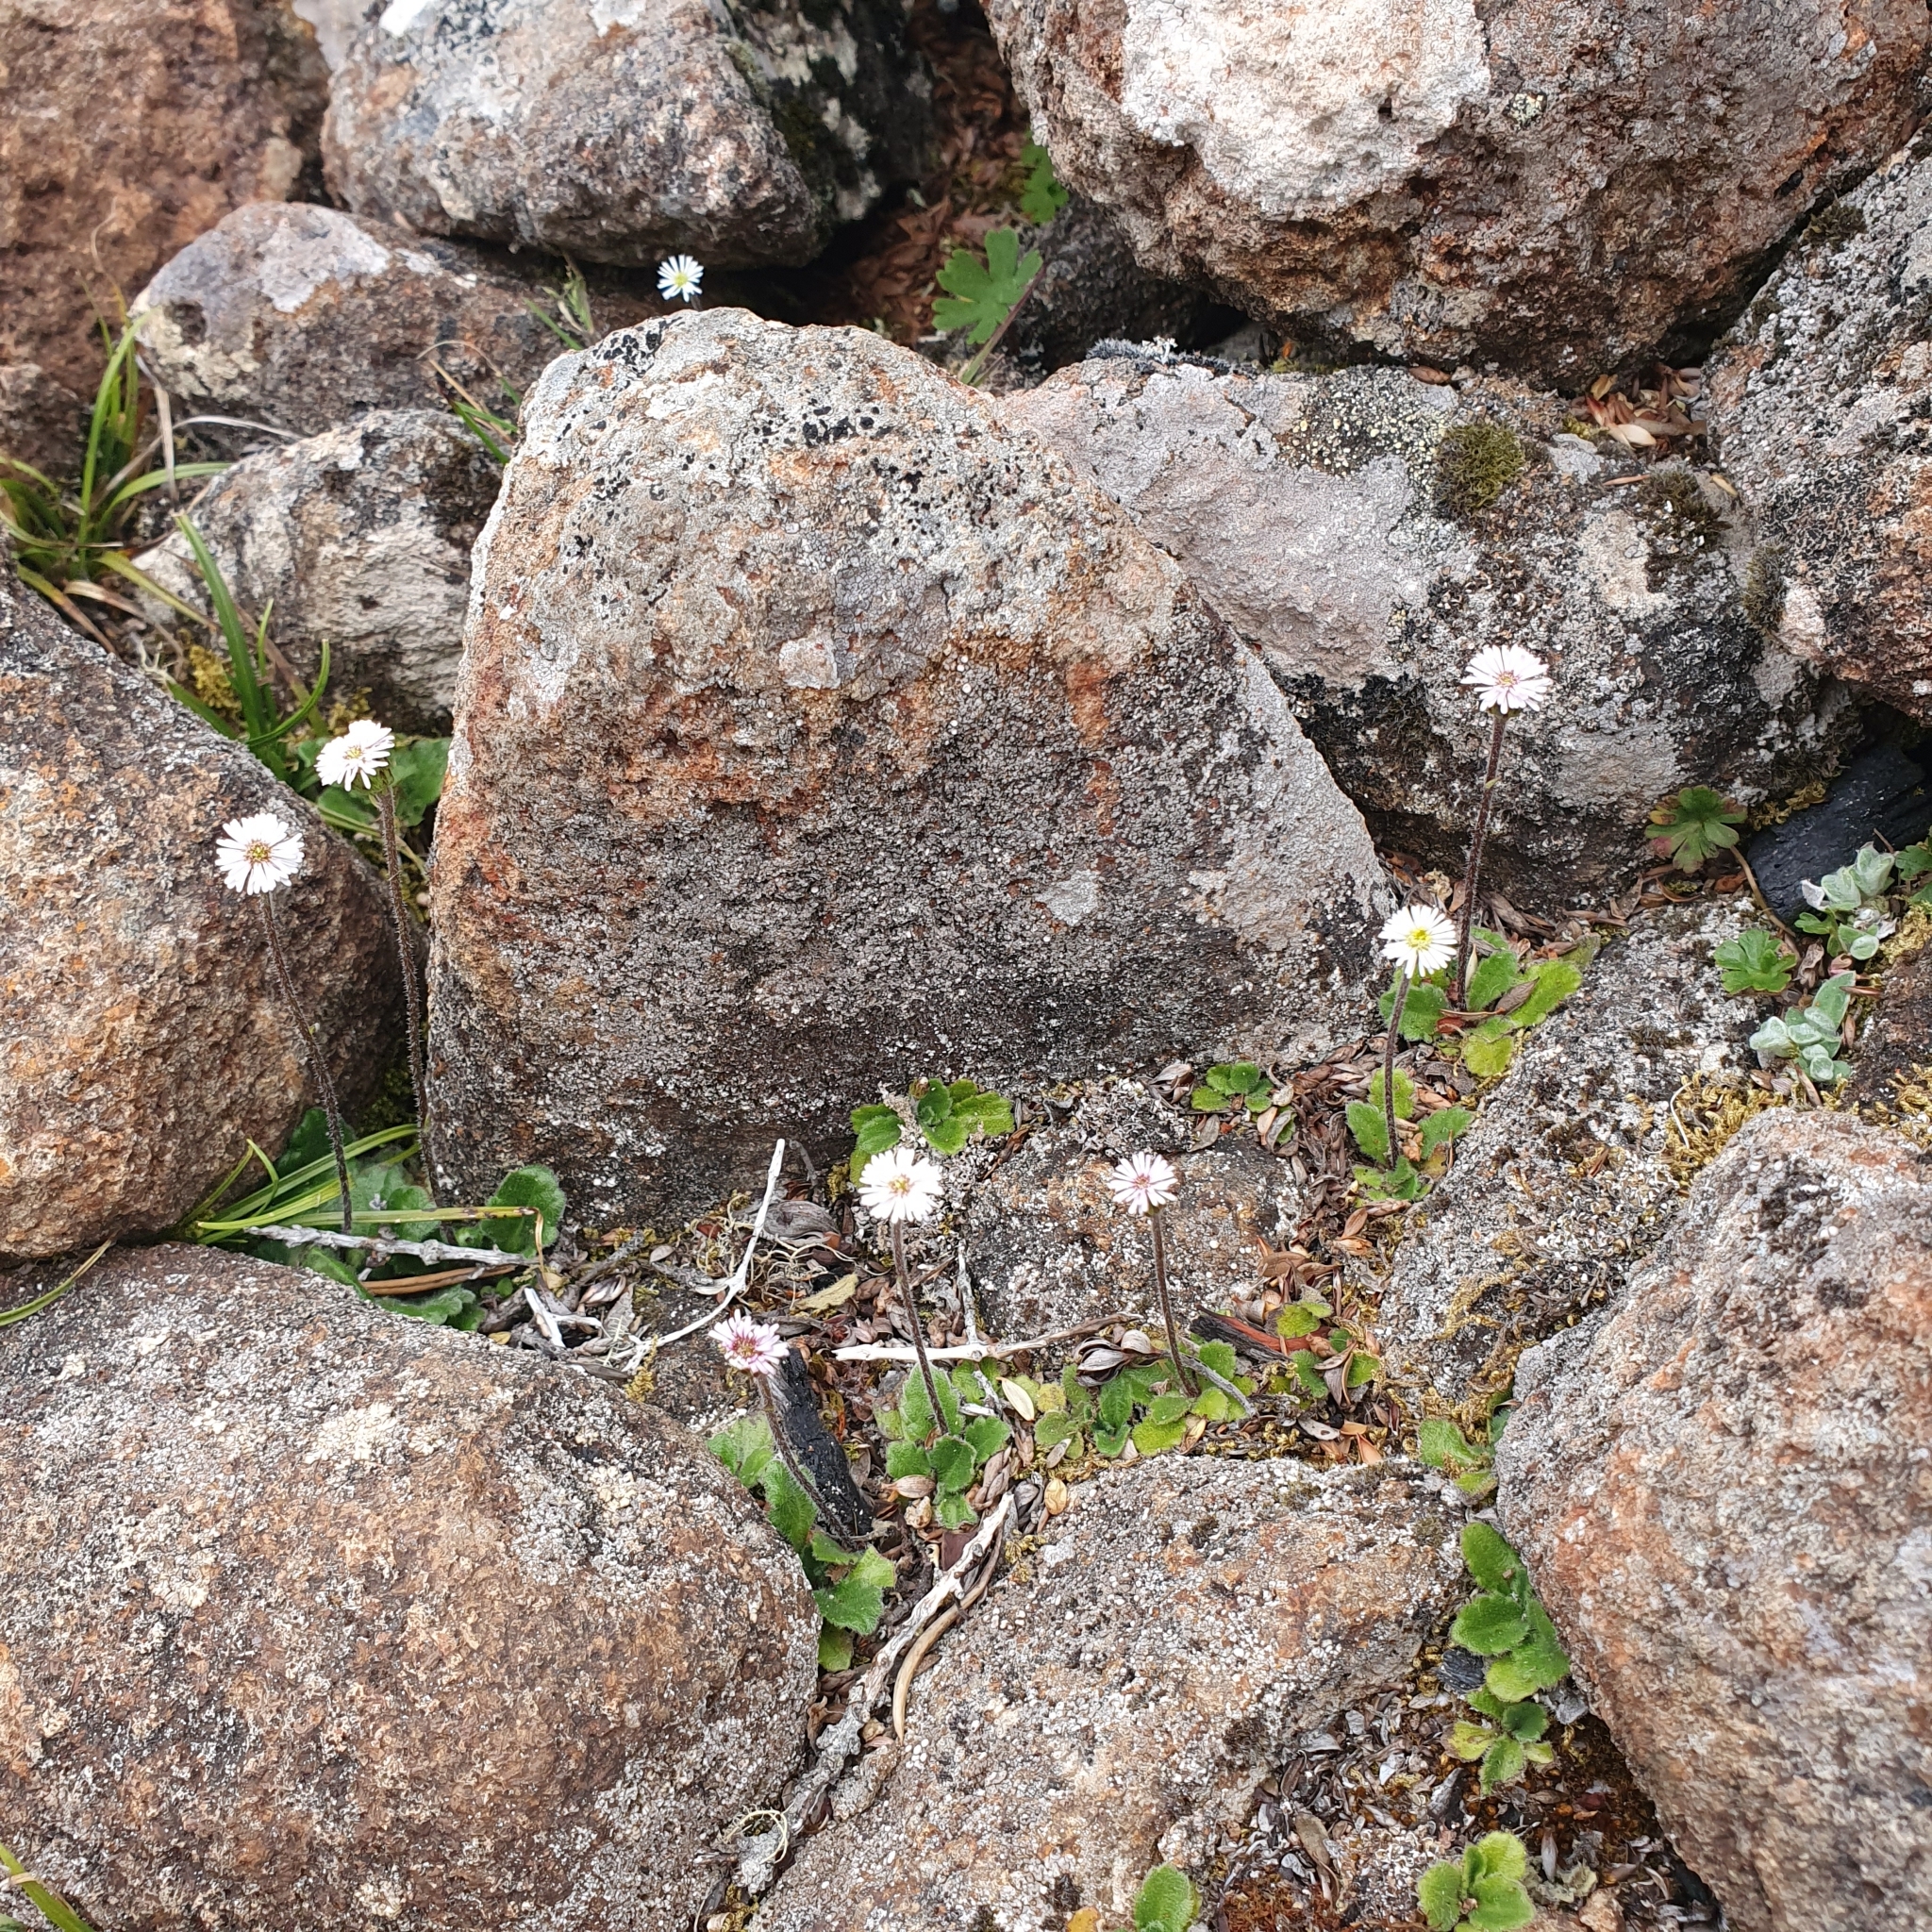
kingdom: Plantae
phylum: Tracheophyta
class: Magnoliopsida
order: Asterales
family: Asteraceae
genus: Lagenophora
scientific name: Lagenophora latifolia
